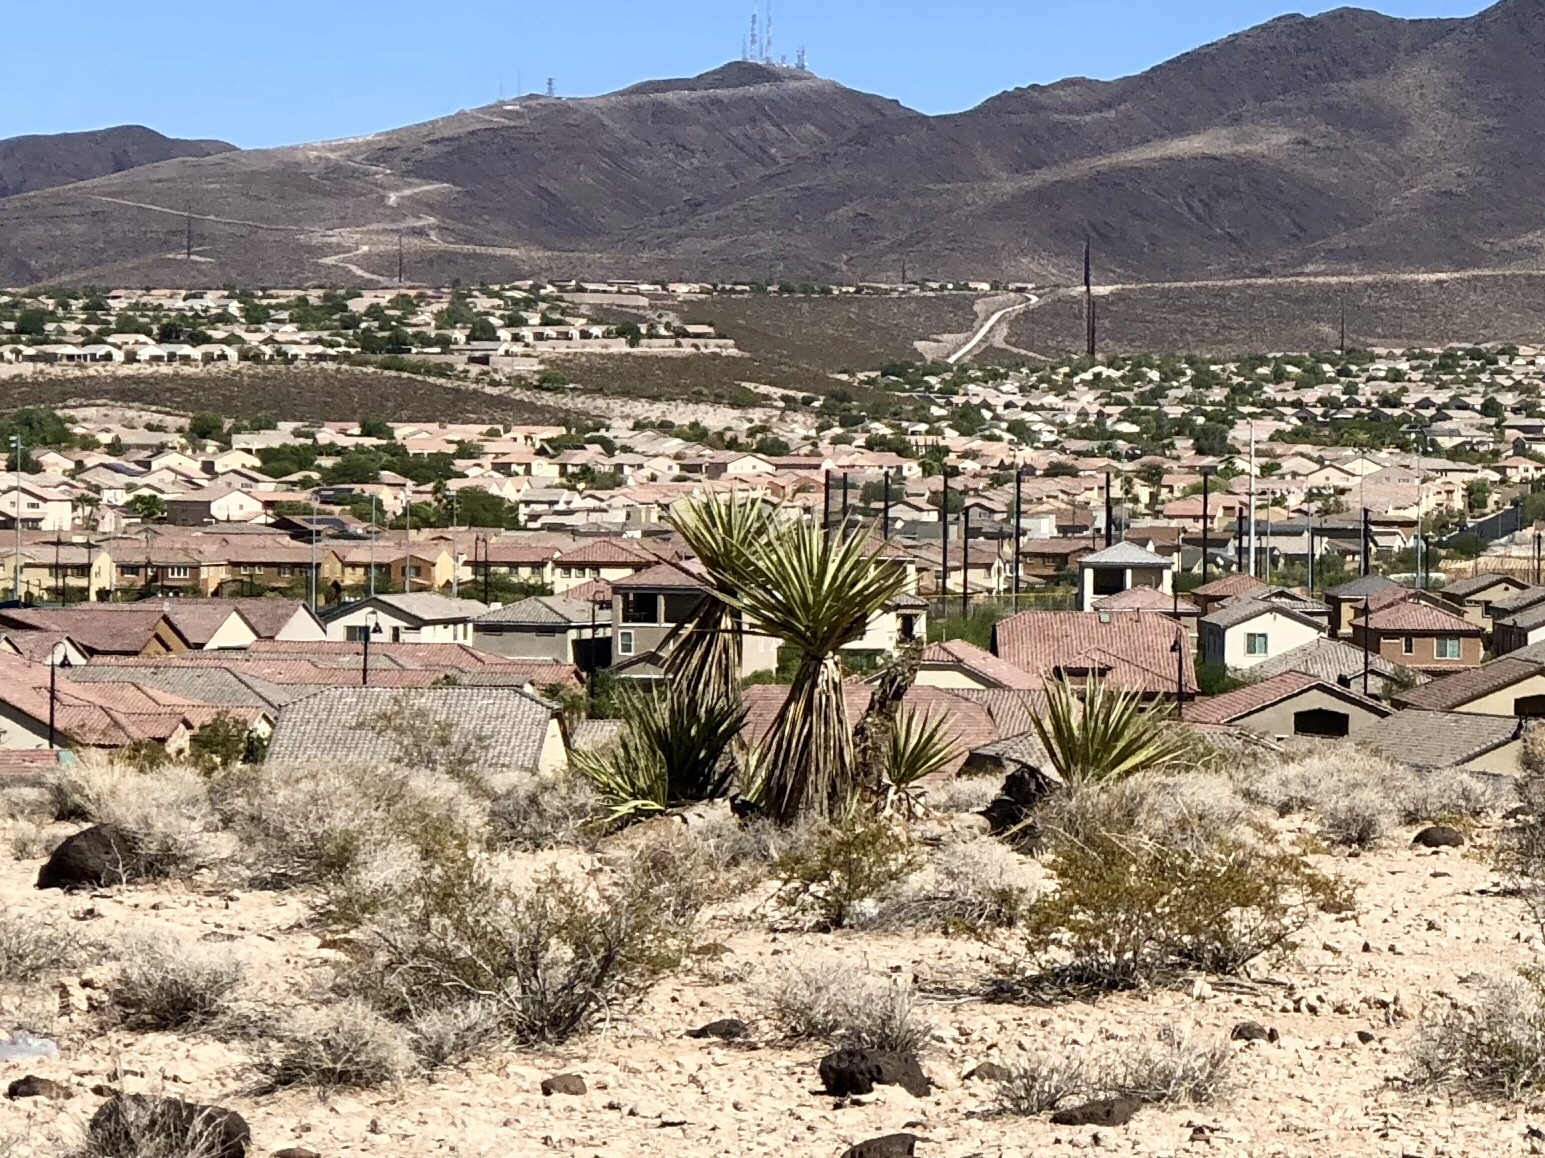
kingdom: Plantae
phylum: Tracheophyta
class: Liliopsida
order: Asparagales
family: Asparagaceae
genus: Yucca
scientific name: Yucca schidigera
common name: Mojave yucca
